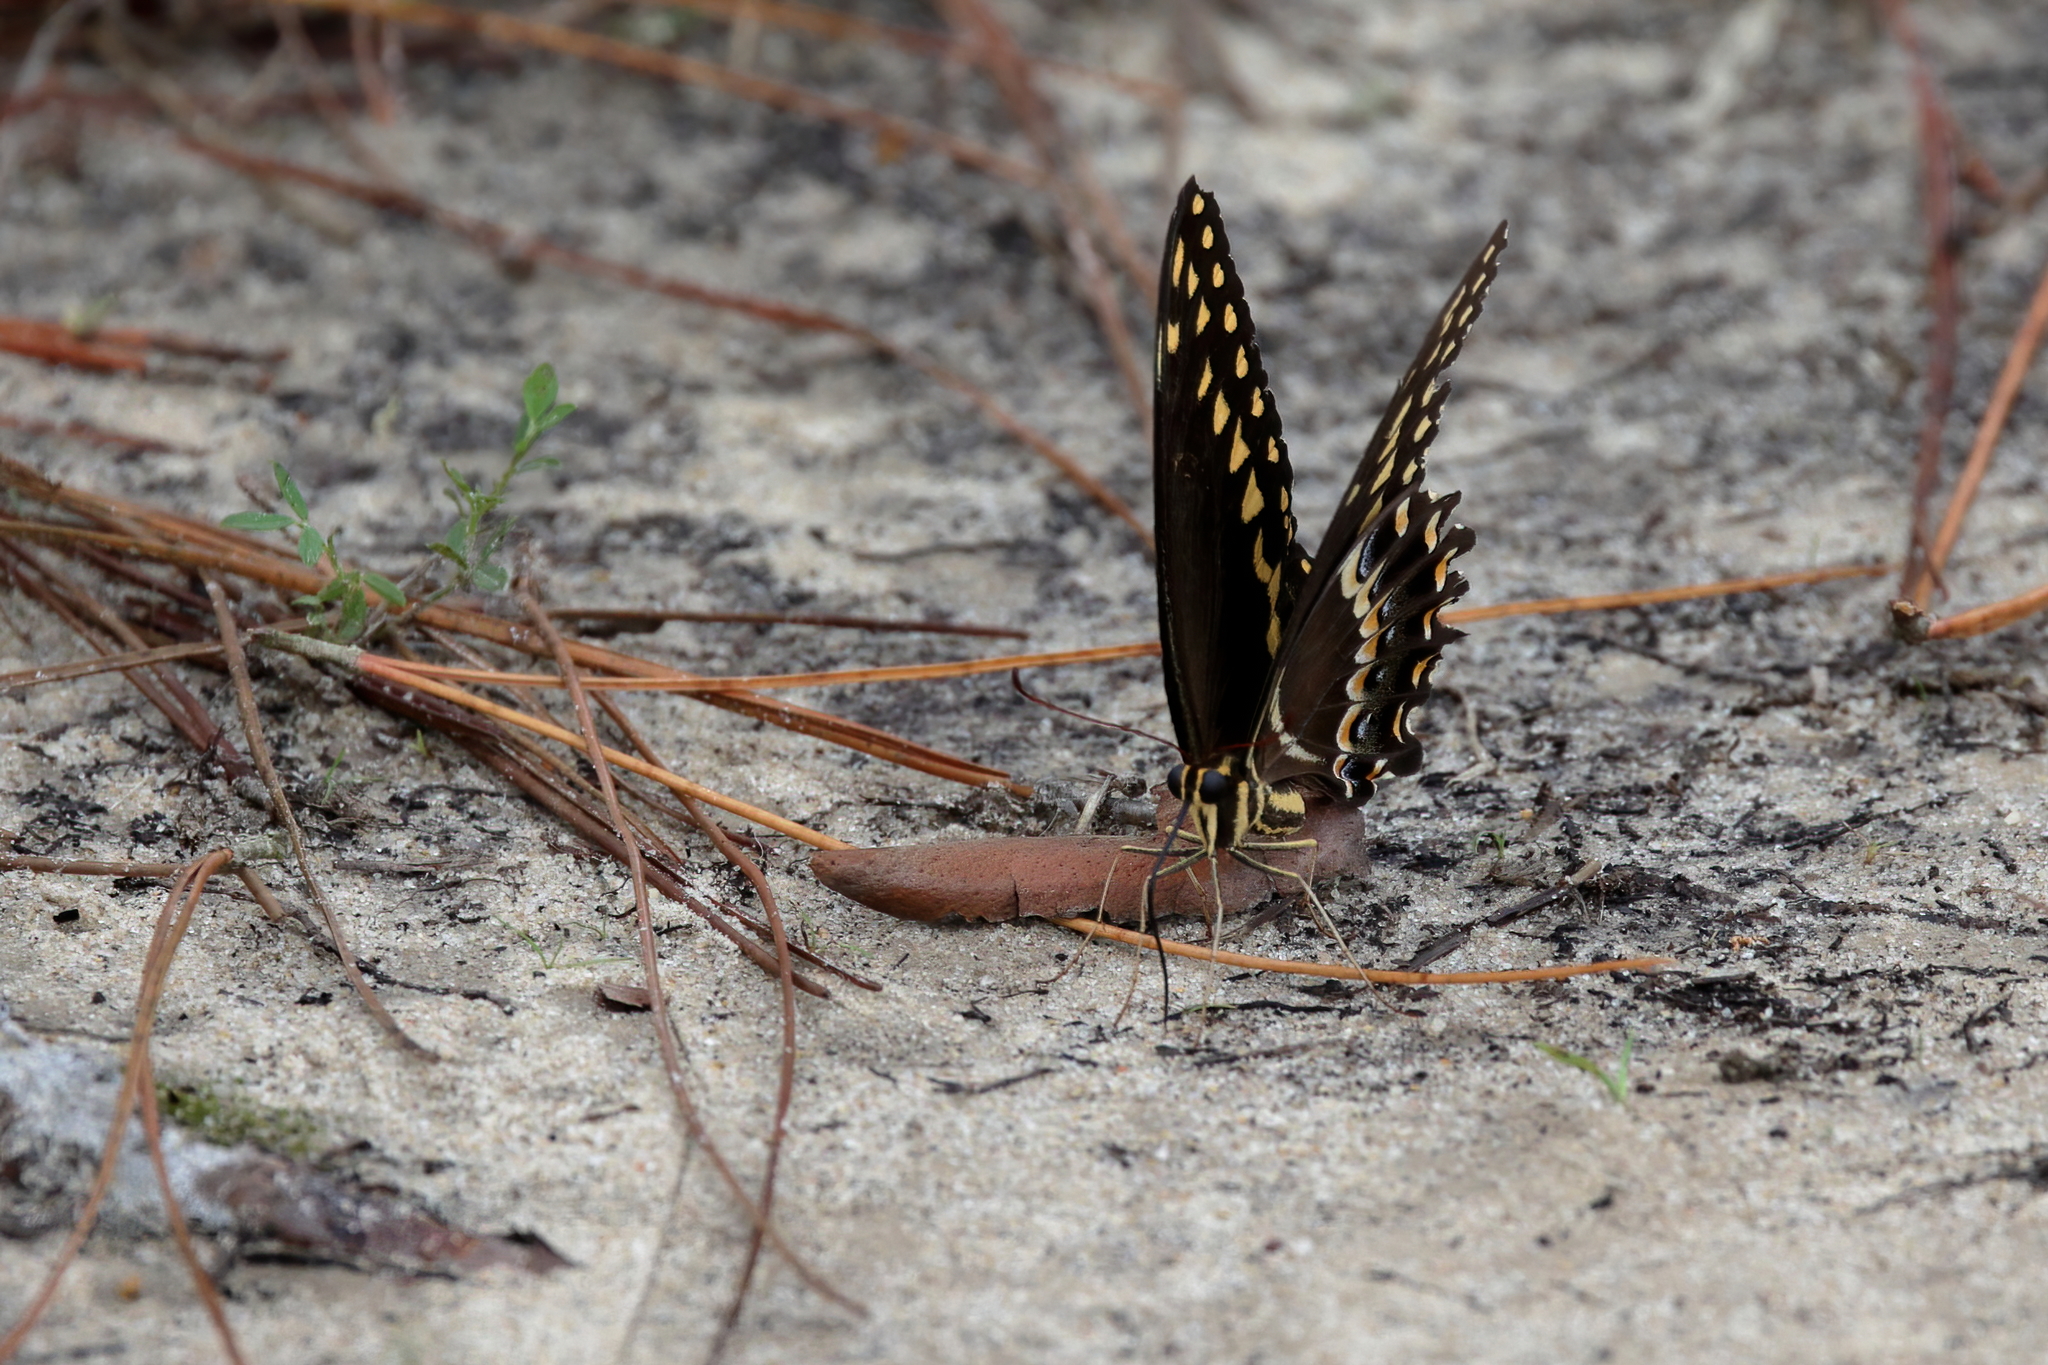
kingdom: Animalia
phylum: Arthropoda
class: Insecta
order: Lepidoptera
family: Papilionidae
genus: Papilio
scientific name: Papilio palamedes
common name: Palamedes swallowtail
